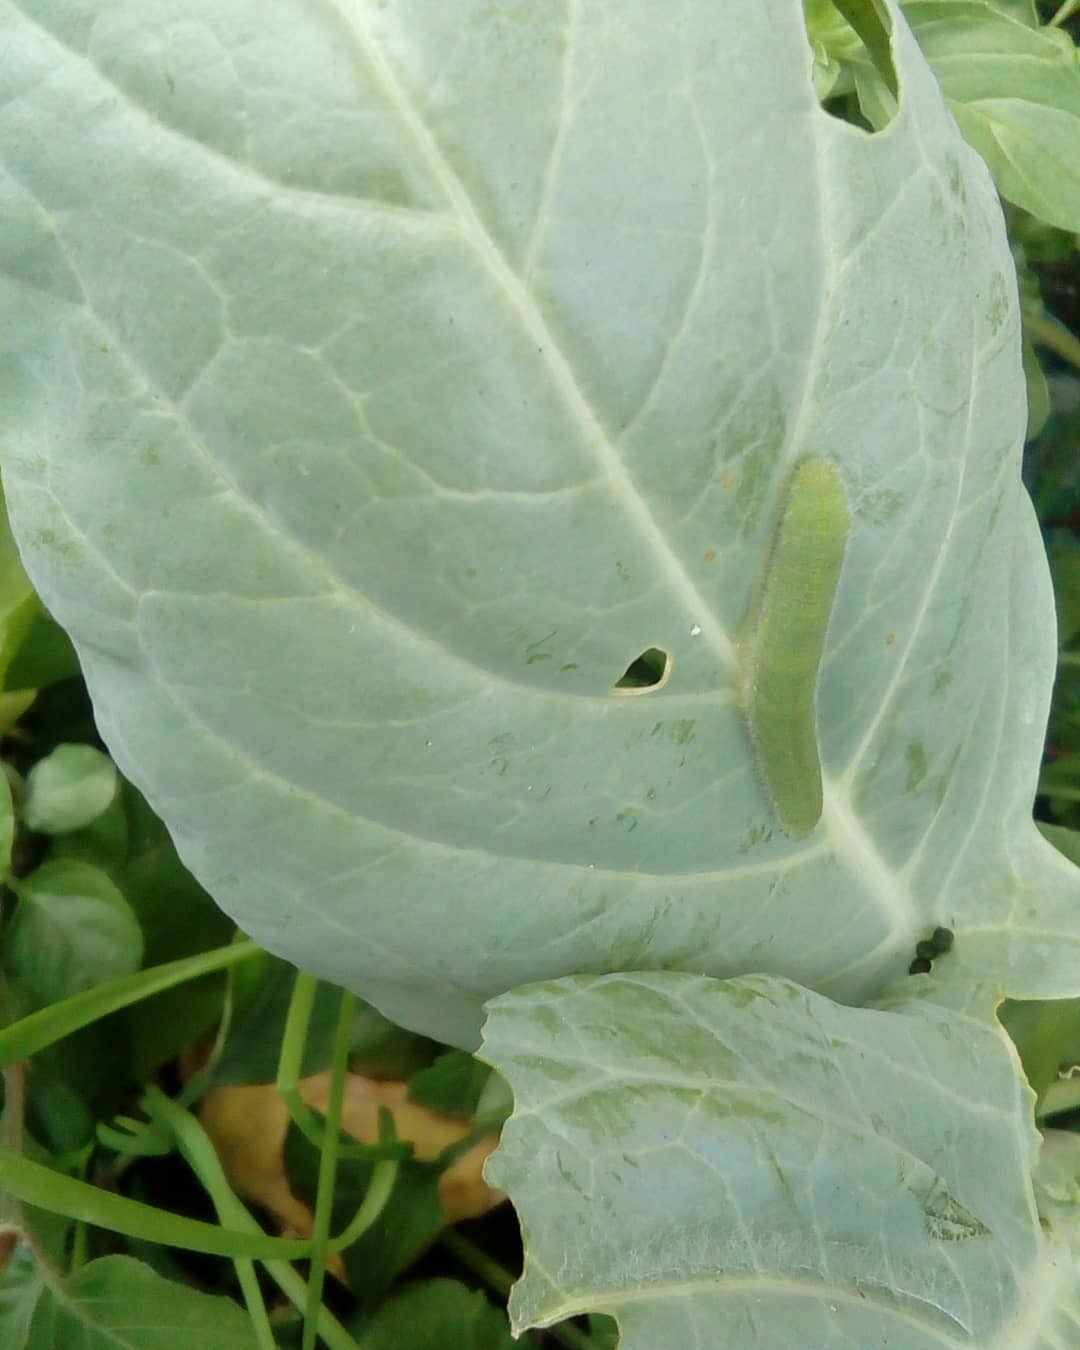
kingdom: Animalia
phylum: Arthropoda
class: Insecta
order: Lepidoptera
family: Pieridae
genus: Pieris
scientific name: Pieris rapae
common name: Small white
